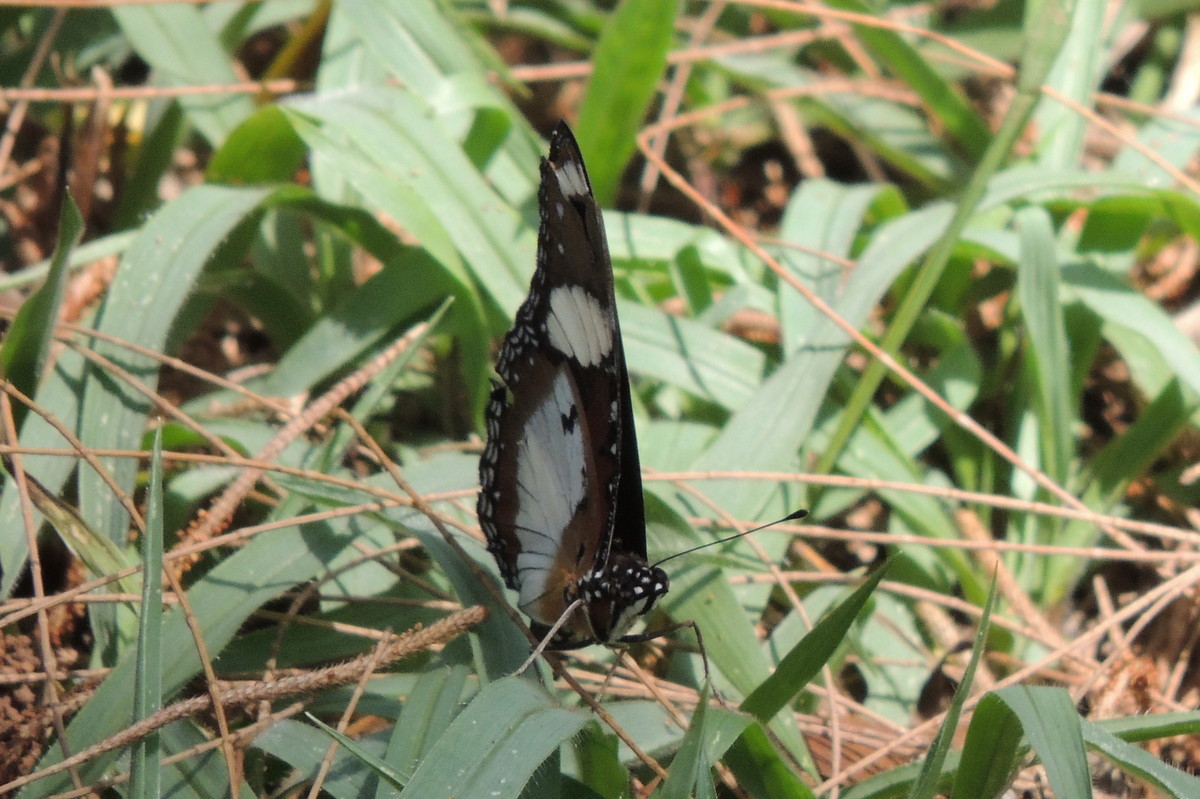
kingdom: Animalia
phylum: Arthropoda
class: Insecta
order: Lepidoptera
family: Nymphalidae
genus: Hypolimnas
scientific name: Hypolimnas misippus
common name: False plain tiger
